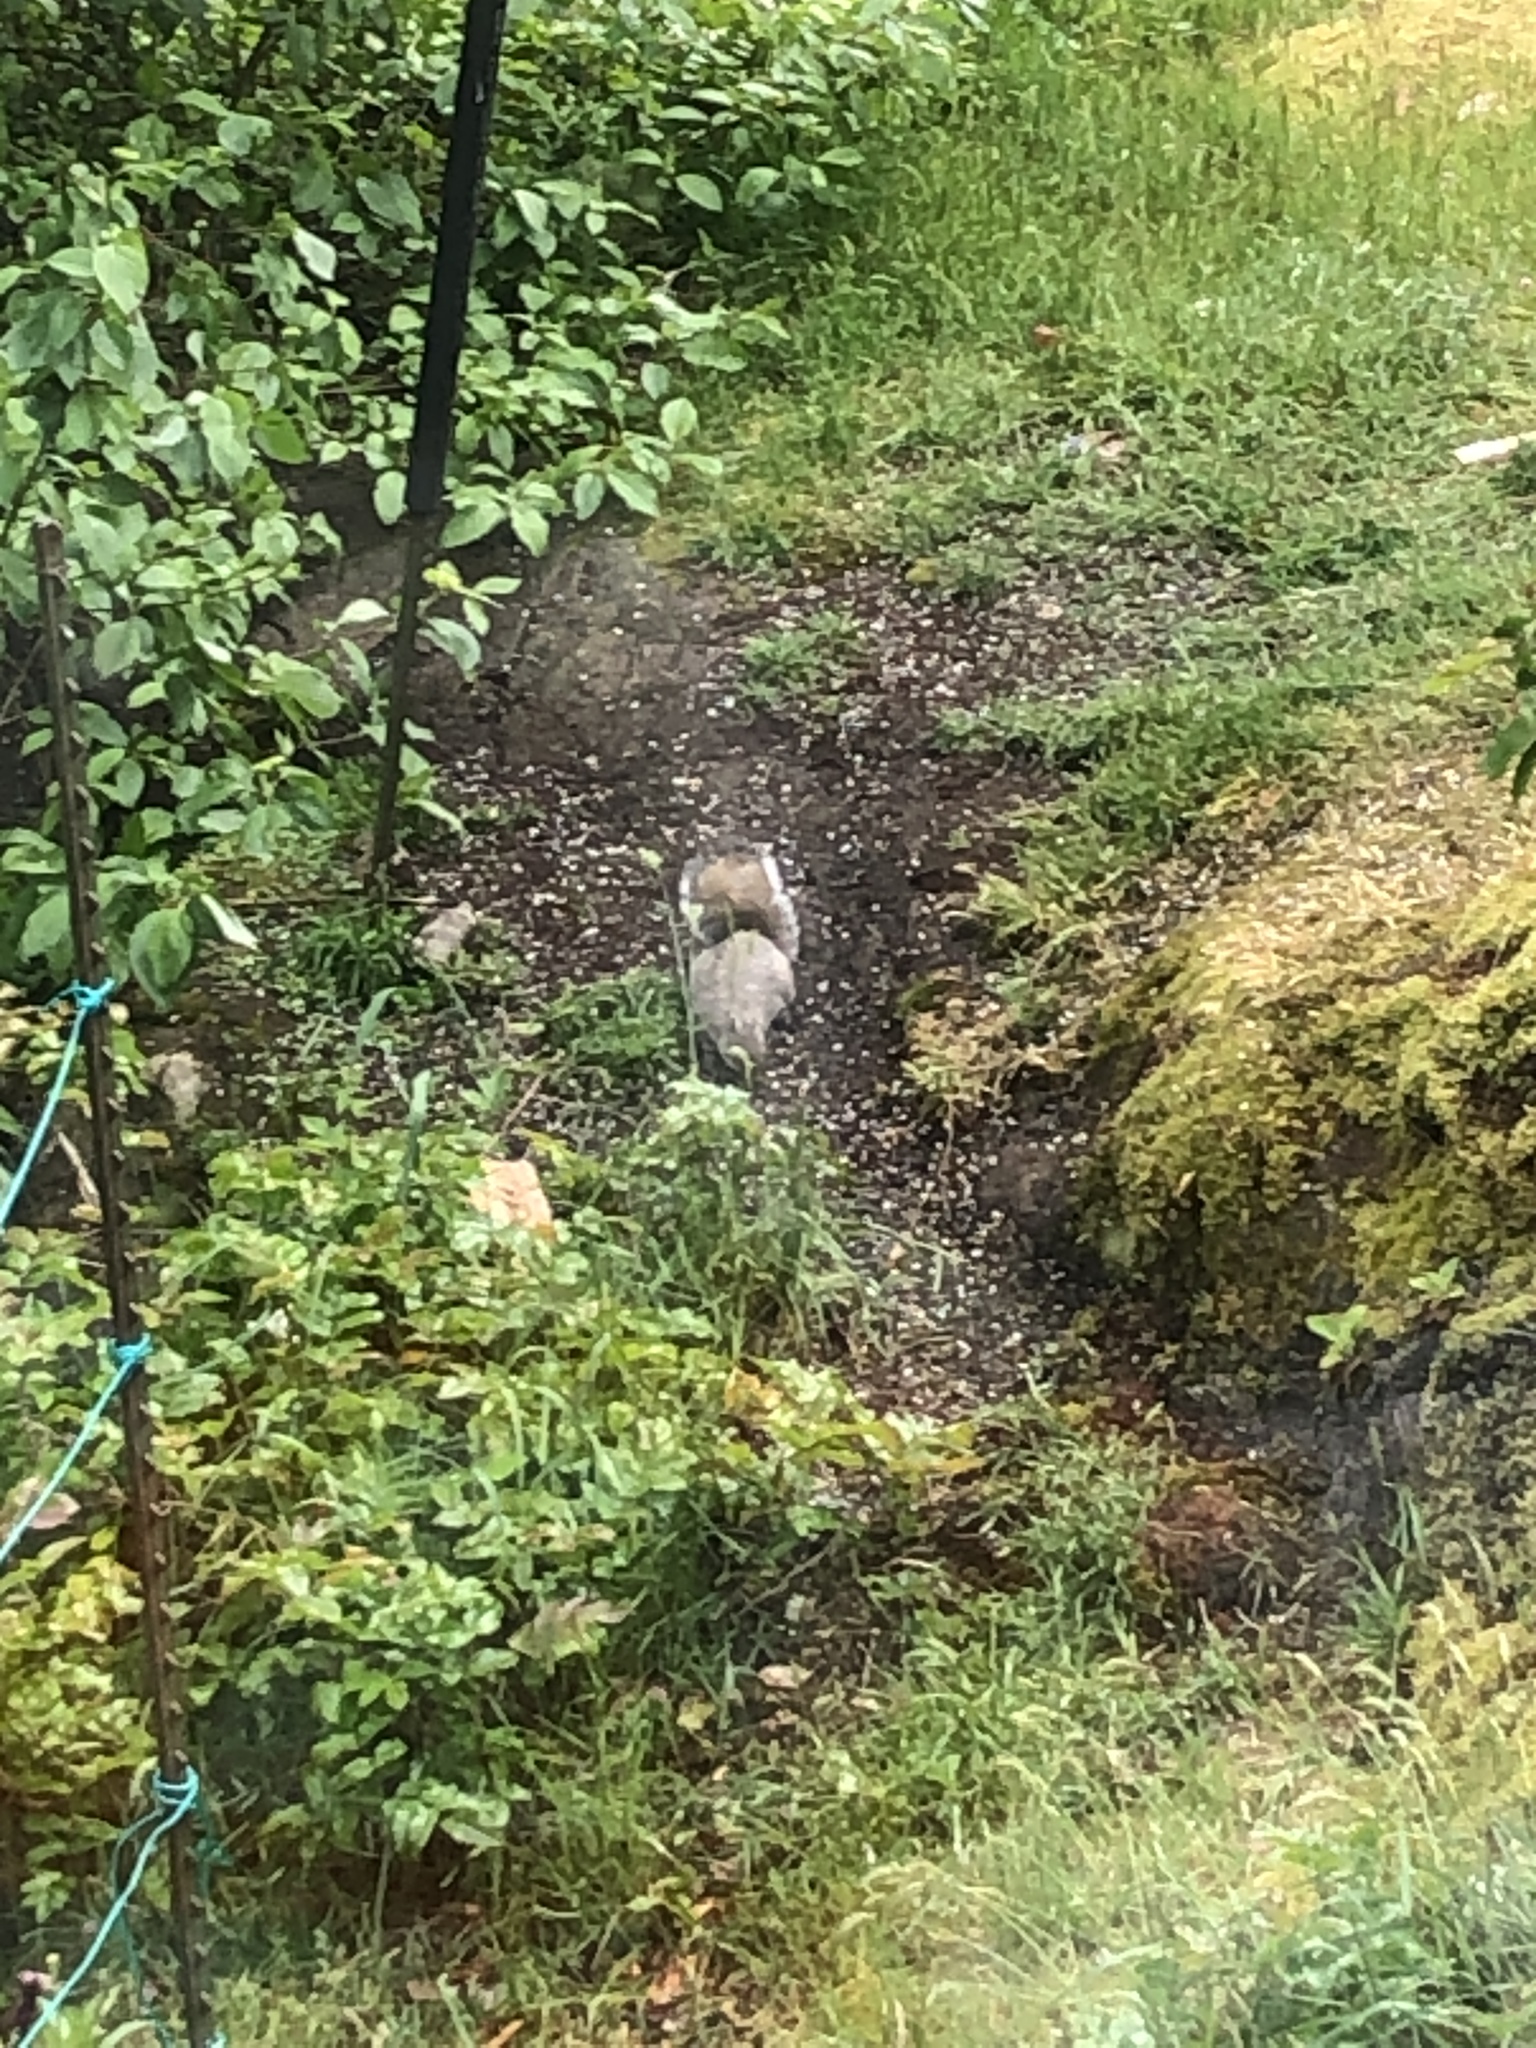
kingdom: Animalia
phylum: Chordata
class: Mammalia
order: Rodentia
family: Sciuridae
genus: Sciurus
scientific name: Sciurus carolinensis
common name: Eastern gray squirrel
